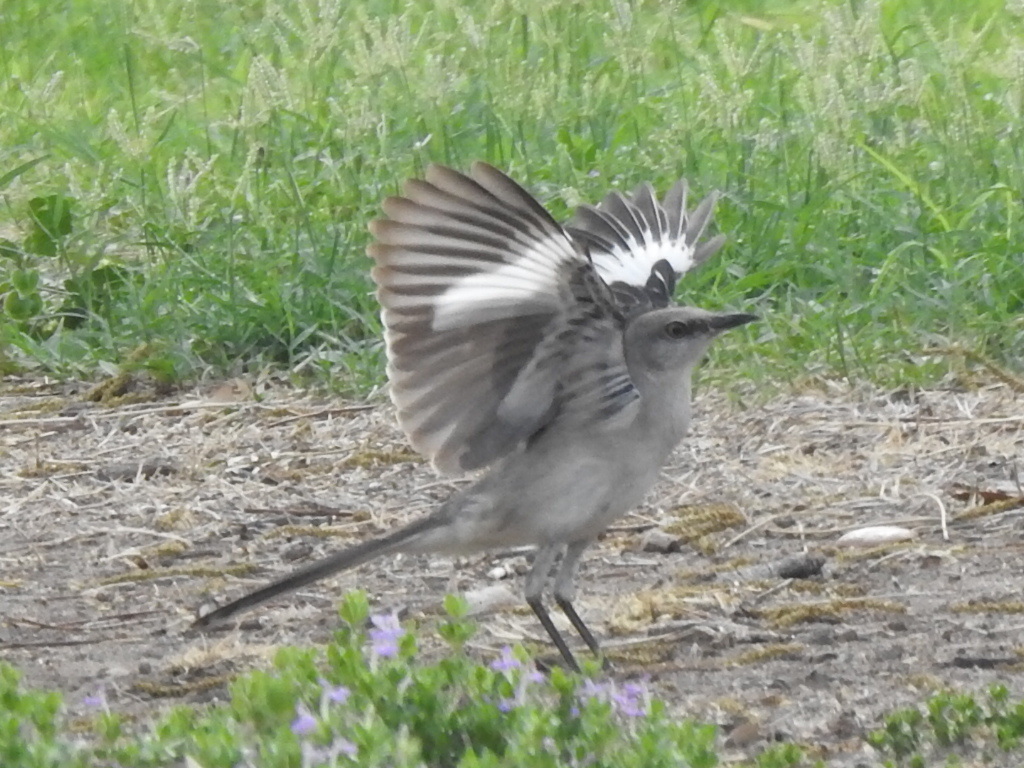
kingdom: Animalia
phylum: Chordata
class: Aves
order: Passeriformes
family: Mimidae
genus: Mimus
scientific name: Mimus polyglottos
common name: Northern mockingbird
